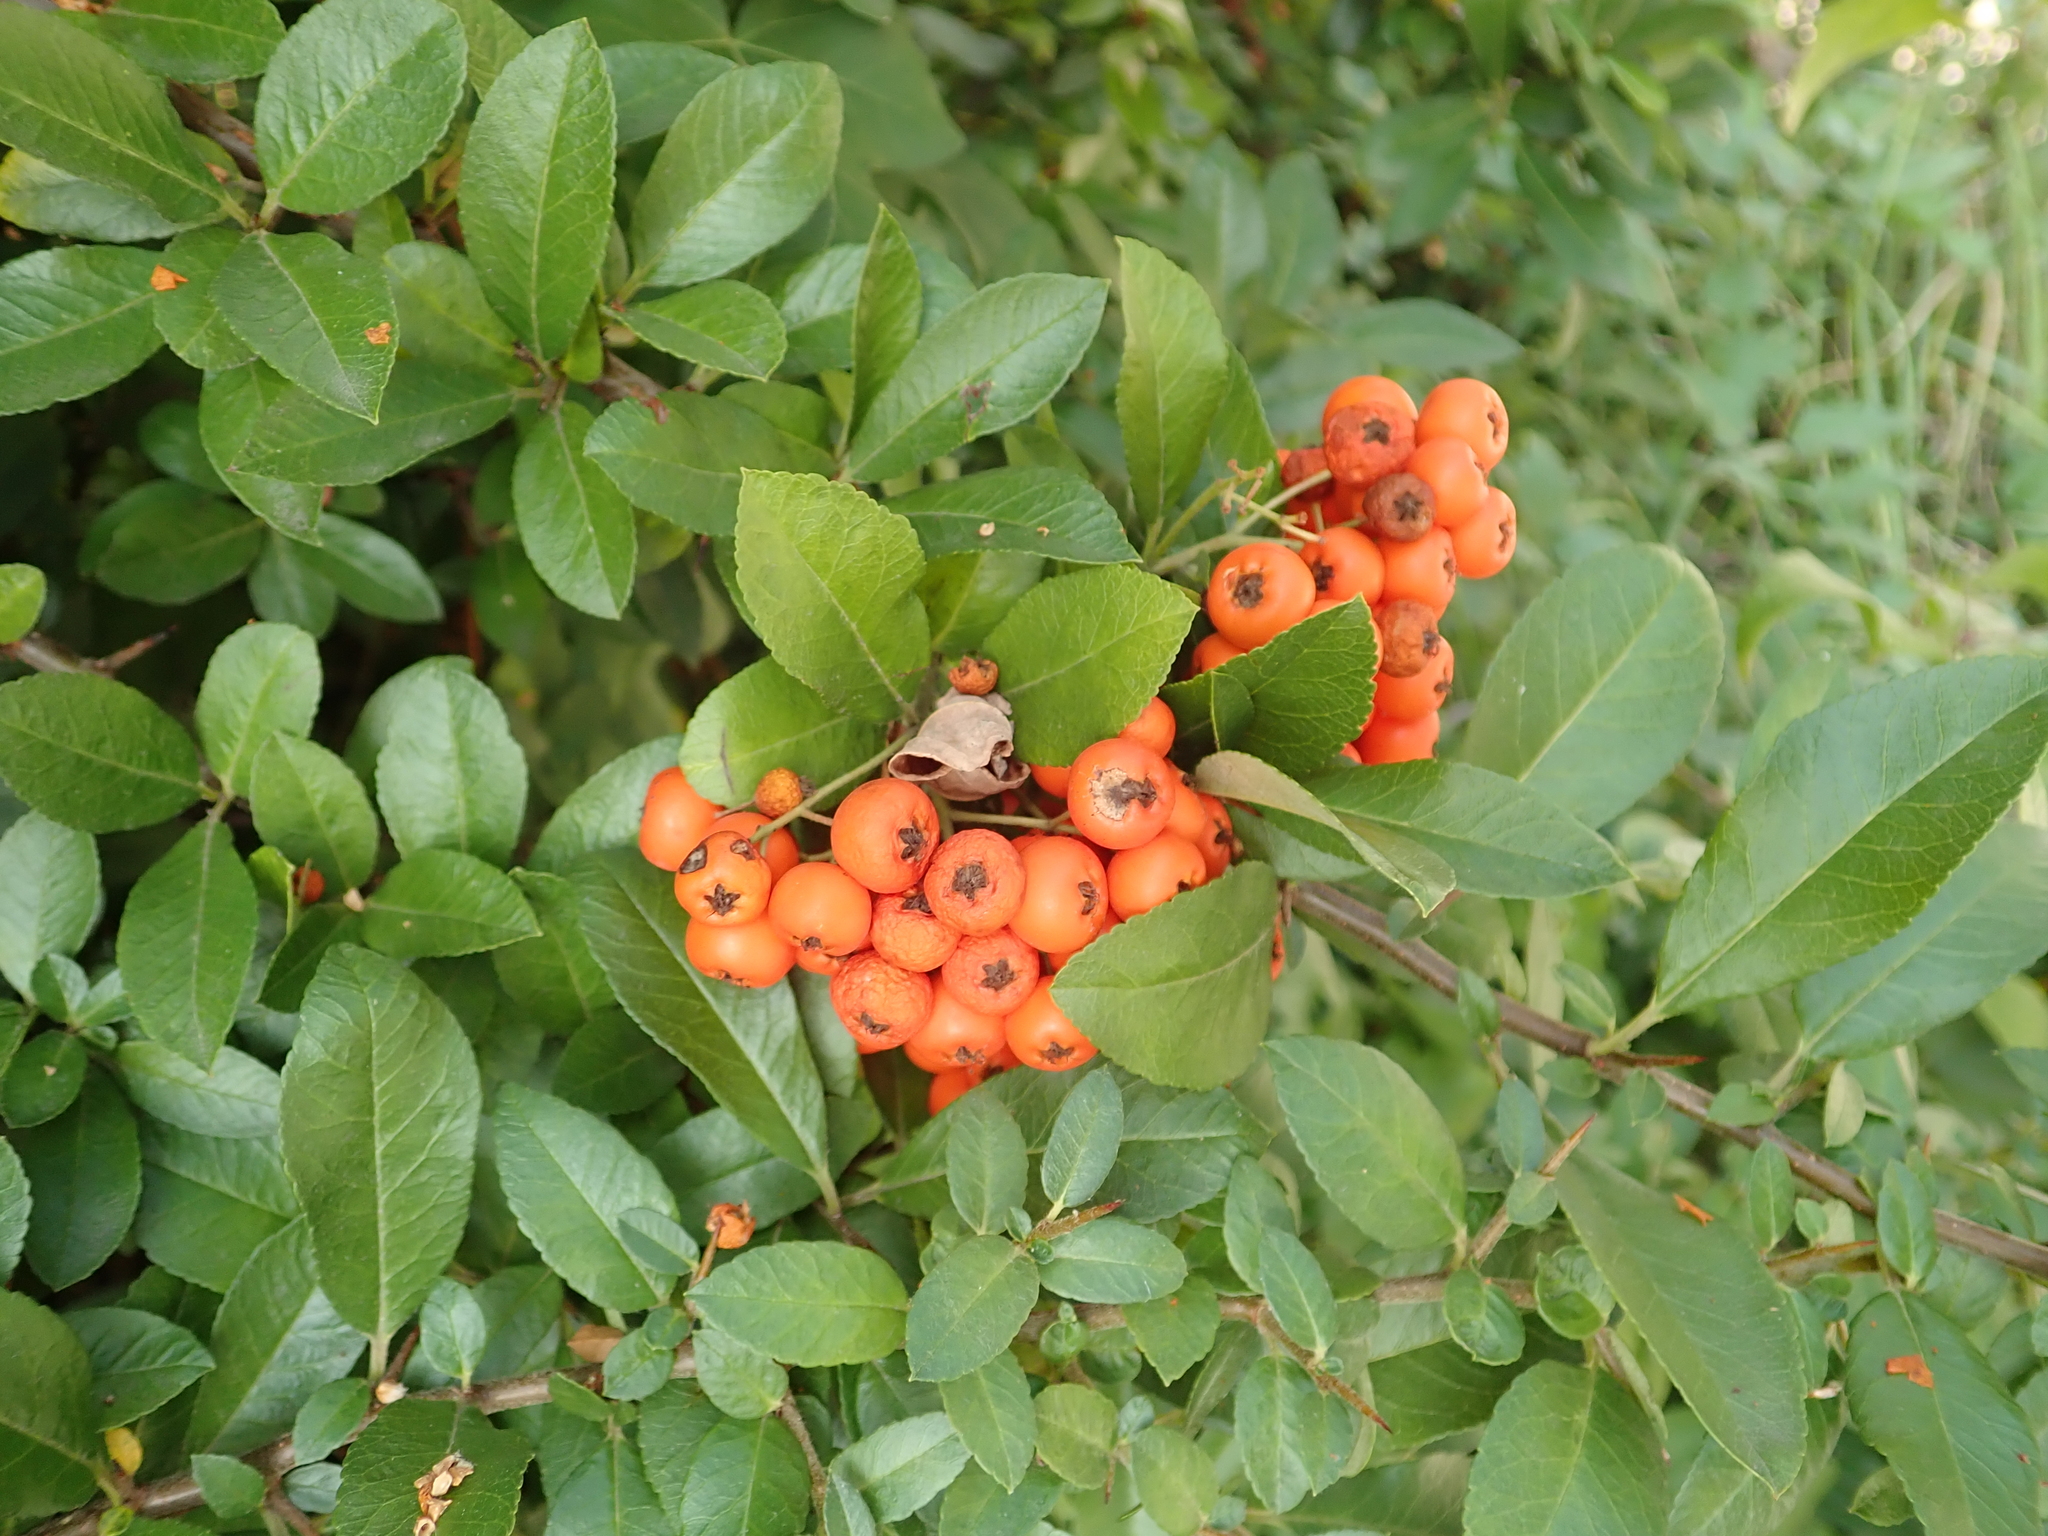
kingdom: Plantae
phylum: Tracheophyta
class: Magnoliopsida
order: Rosales
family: Rosaceae
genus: Pyracantha
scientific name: Pyracantha coccinea
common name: Firethorn
